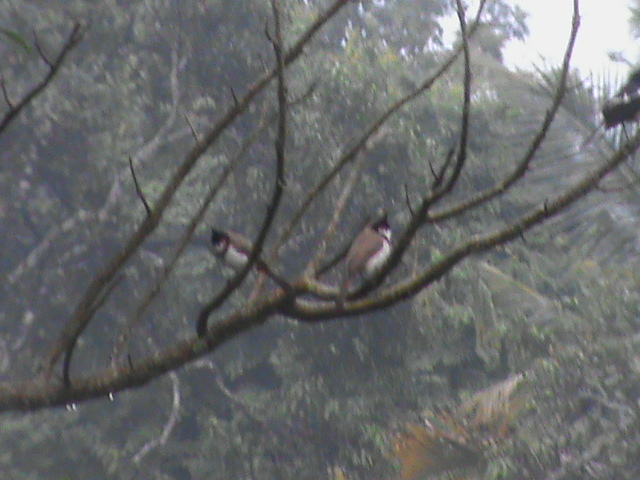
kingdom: Animalia
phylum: Chordata
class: Aves
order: Passeriformes
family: Pycnonotidae
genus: Pycnonotus
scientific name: Pycnonotus jocosus
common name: Red-whiskered bulbul
